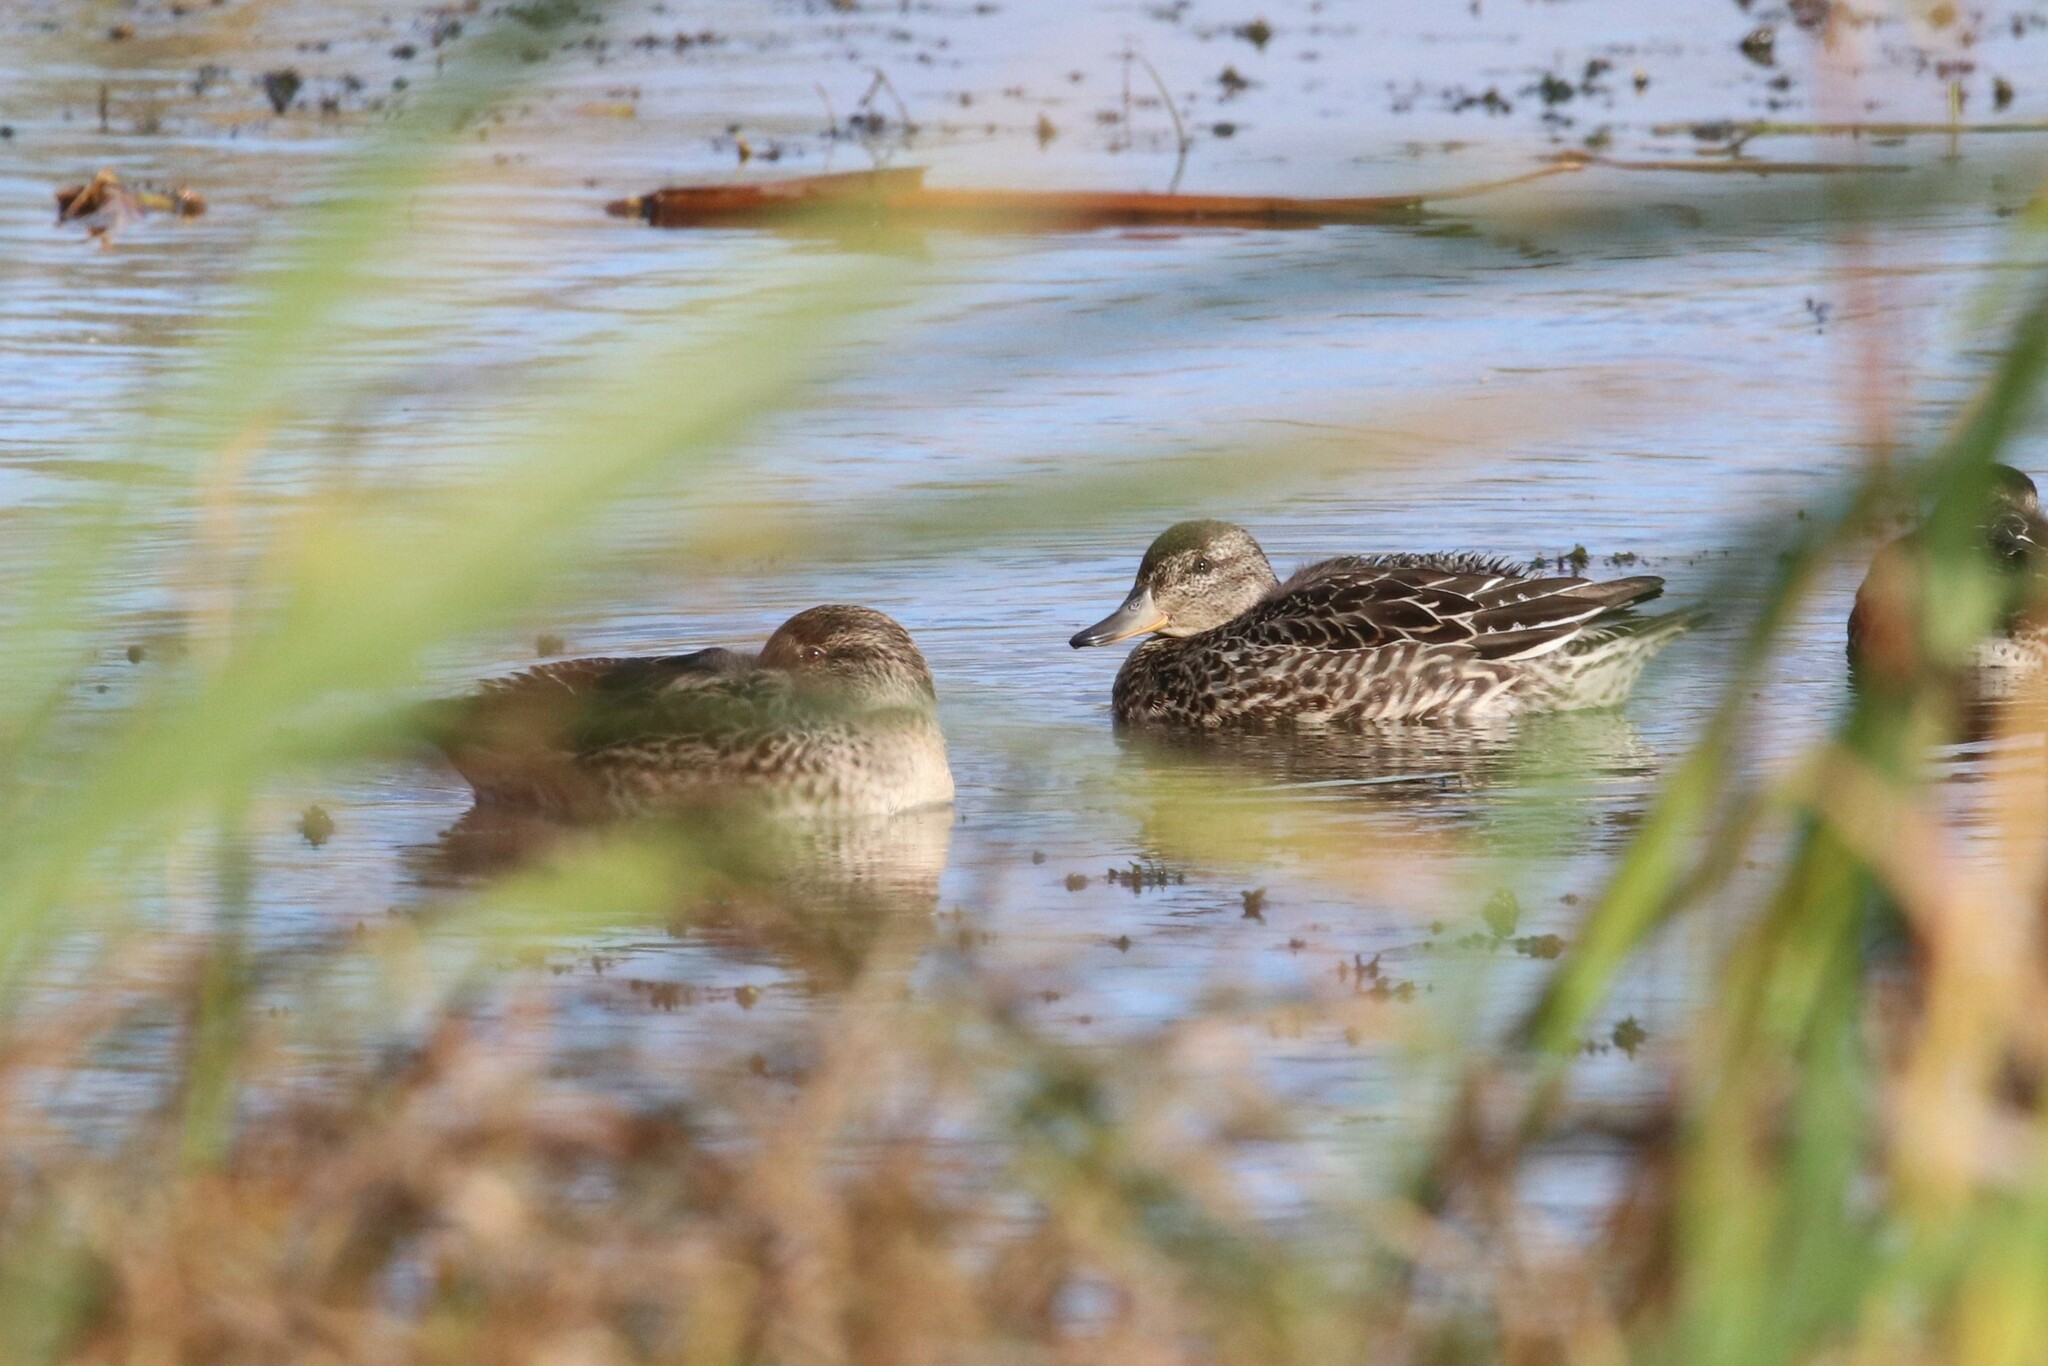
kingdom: Animalia
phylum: Chordata
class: Aves
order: Anseriformes
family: Anatidae
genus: Anas
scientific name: Anas crecca
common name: Eurasian teal
